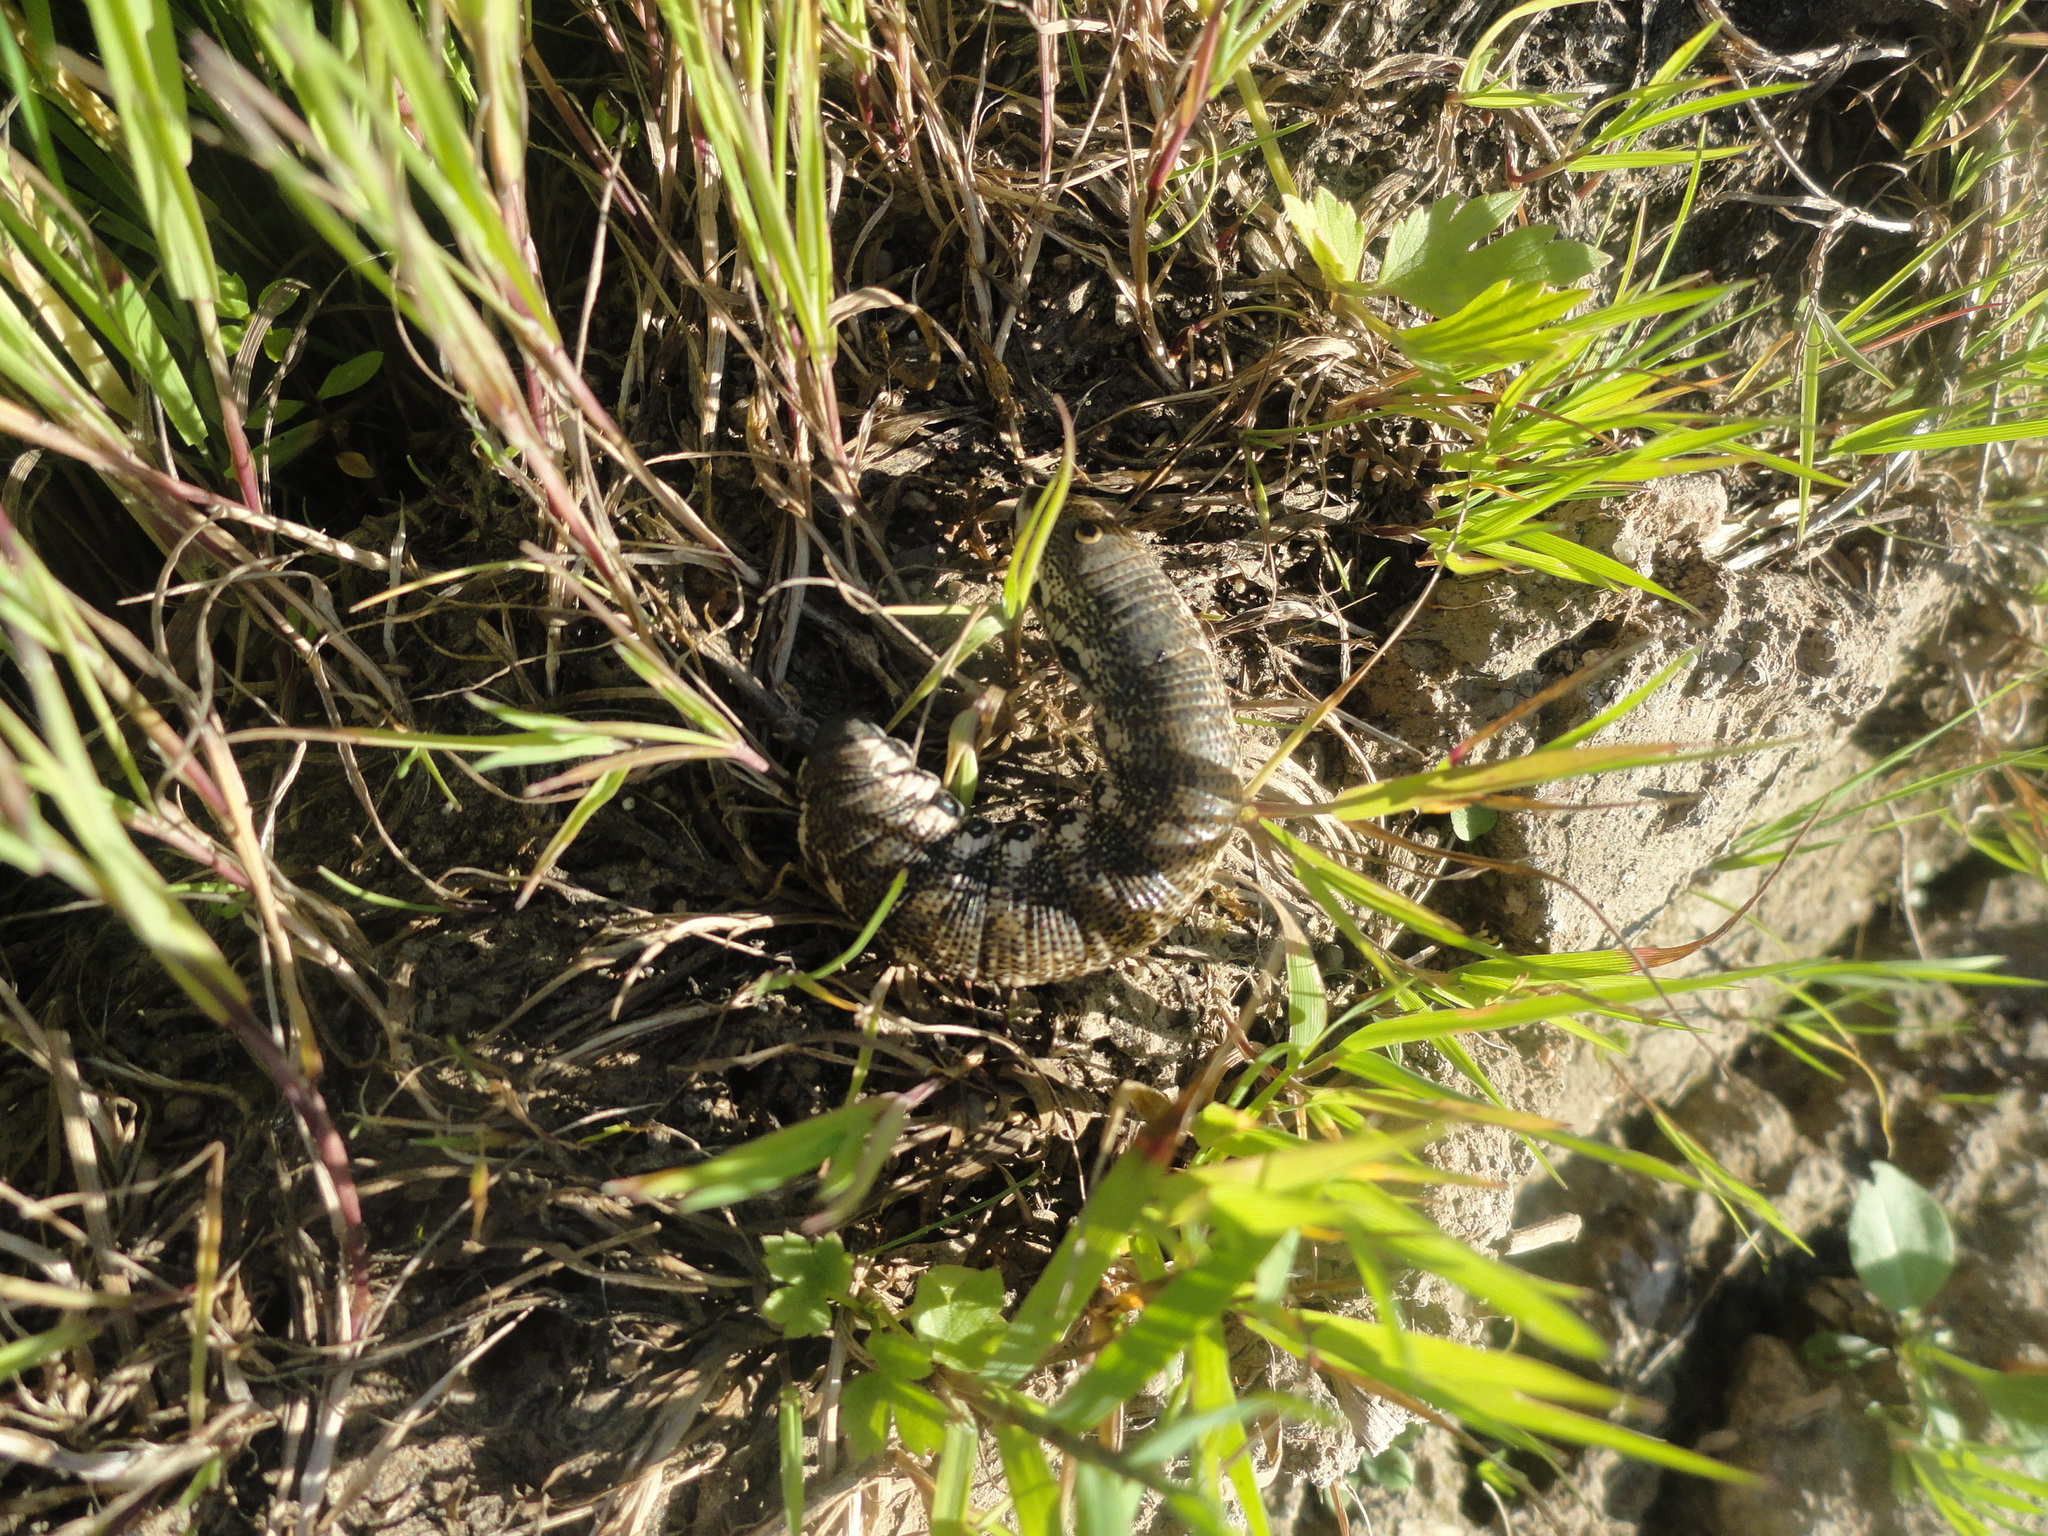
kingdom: Animalia
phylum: Arthropoda
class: Insecta
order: Lepidoptera
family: Sphingidae
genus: Proserpinus
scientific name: Proserpinus proserpina
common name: Willowherb hawkmoth
